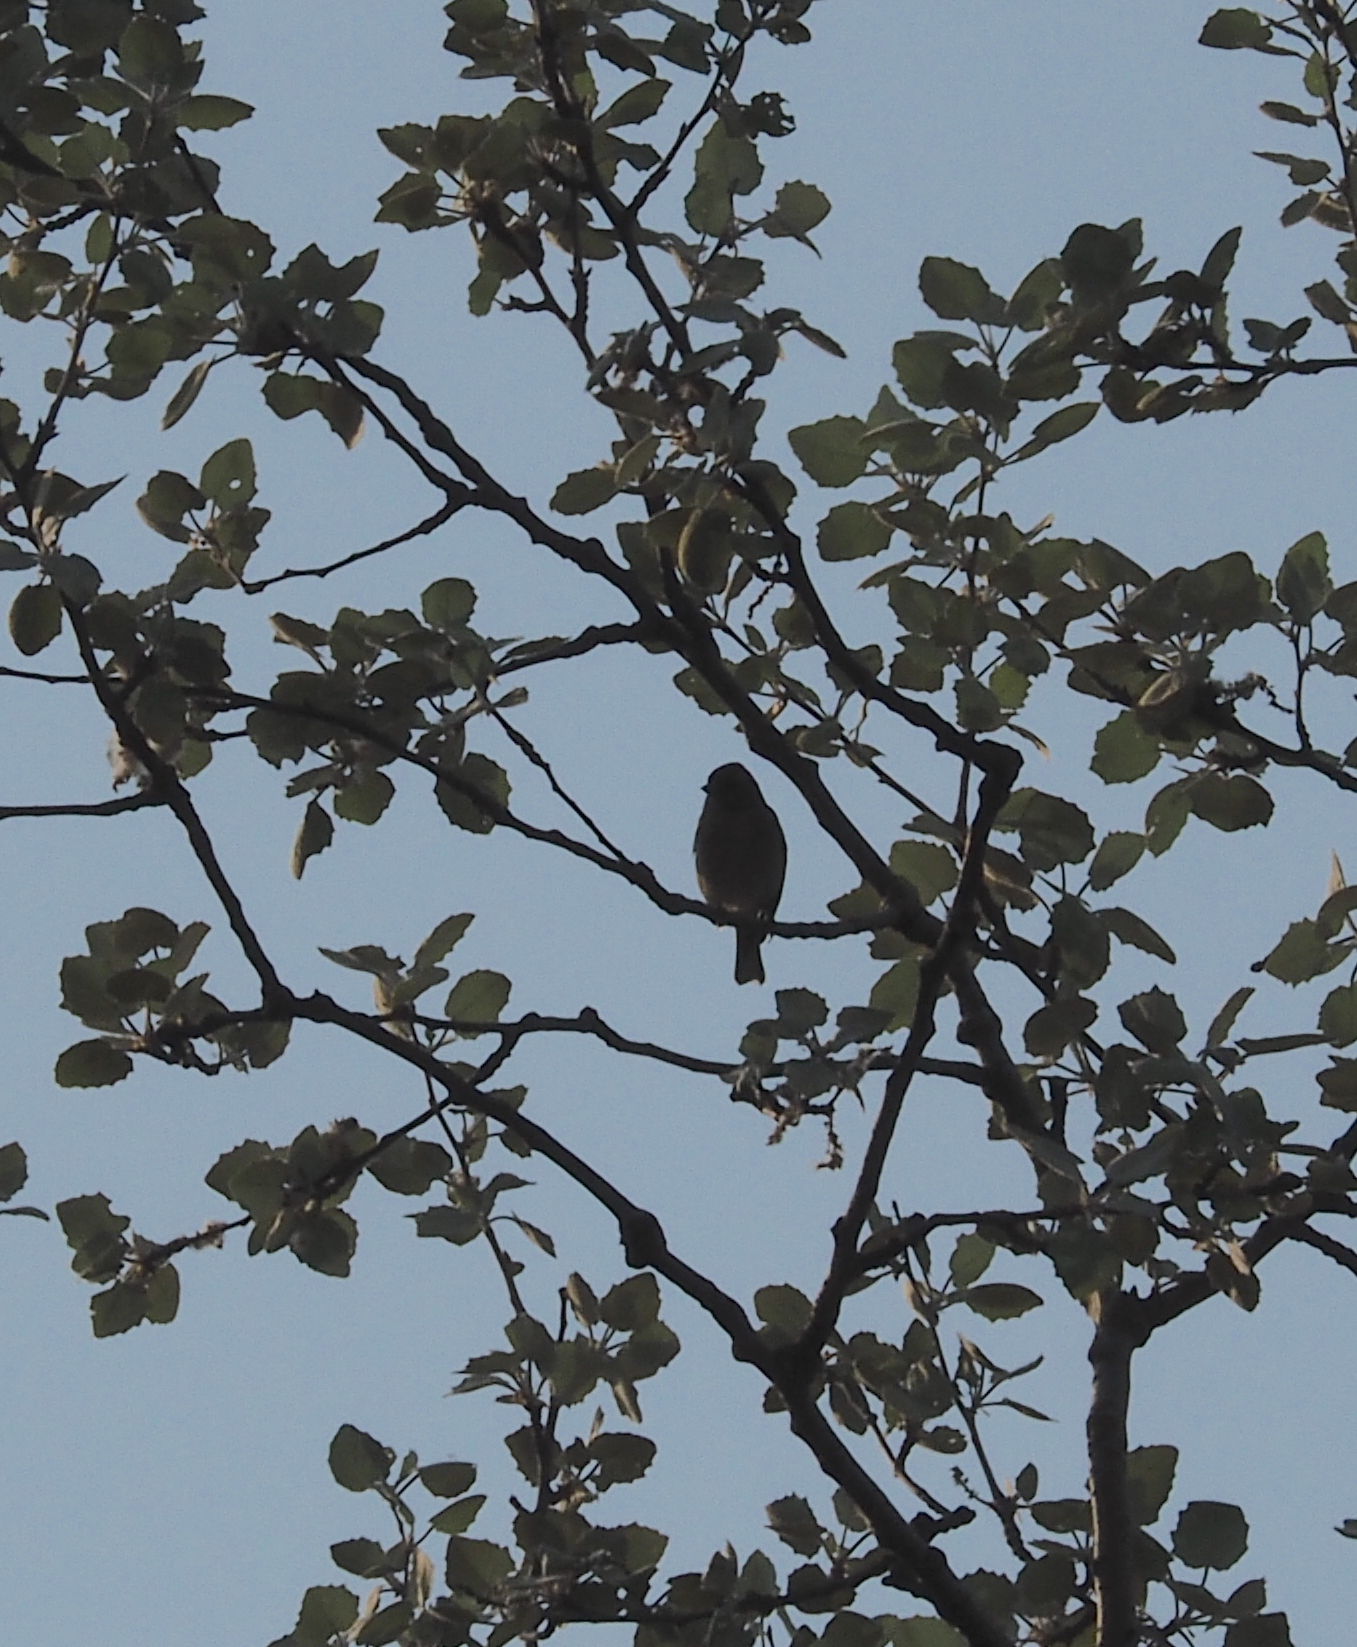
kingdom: Animalia
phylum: Chordata
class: Aves
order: Passeriformes
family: Fringillidae
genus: Fringilla
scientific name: Fringilla coelebs
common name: Common chaffinch
